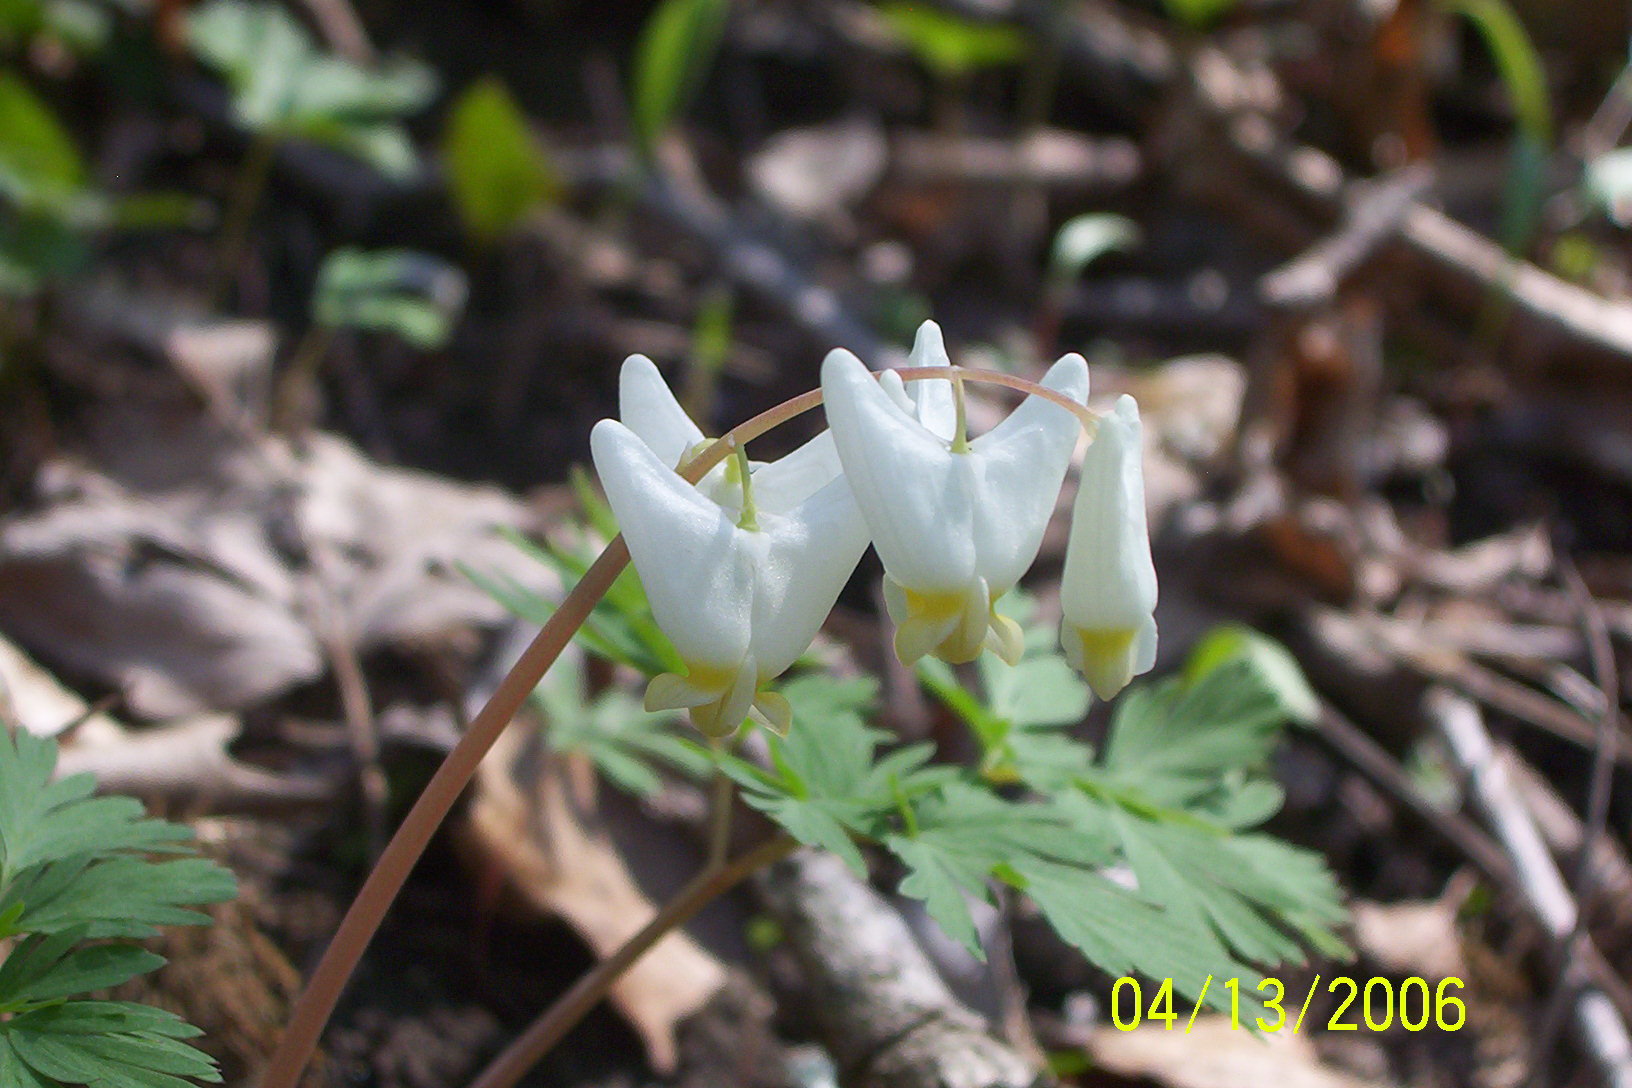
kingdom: Plantae
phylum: Tracheophyta
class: Magnoliopsida
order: Ranunculales
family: Papaveraceae
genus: Dicentra
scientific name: Dicentra cucullaria
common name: Dutchman's breeches
